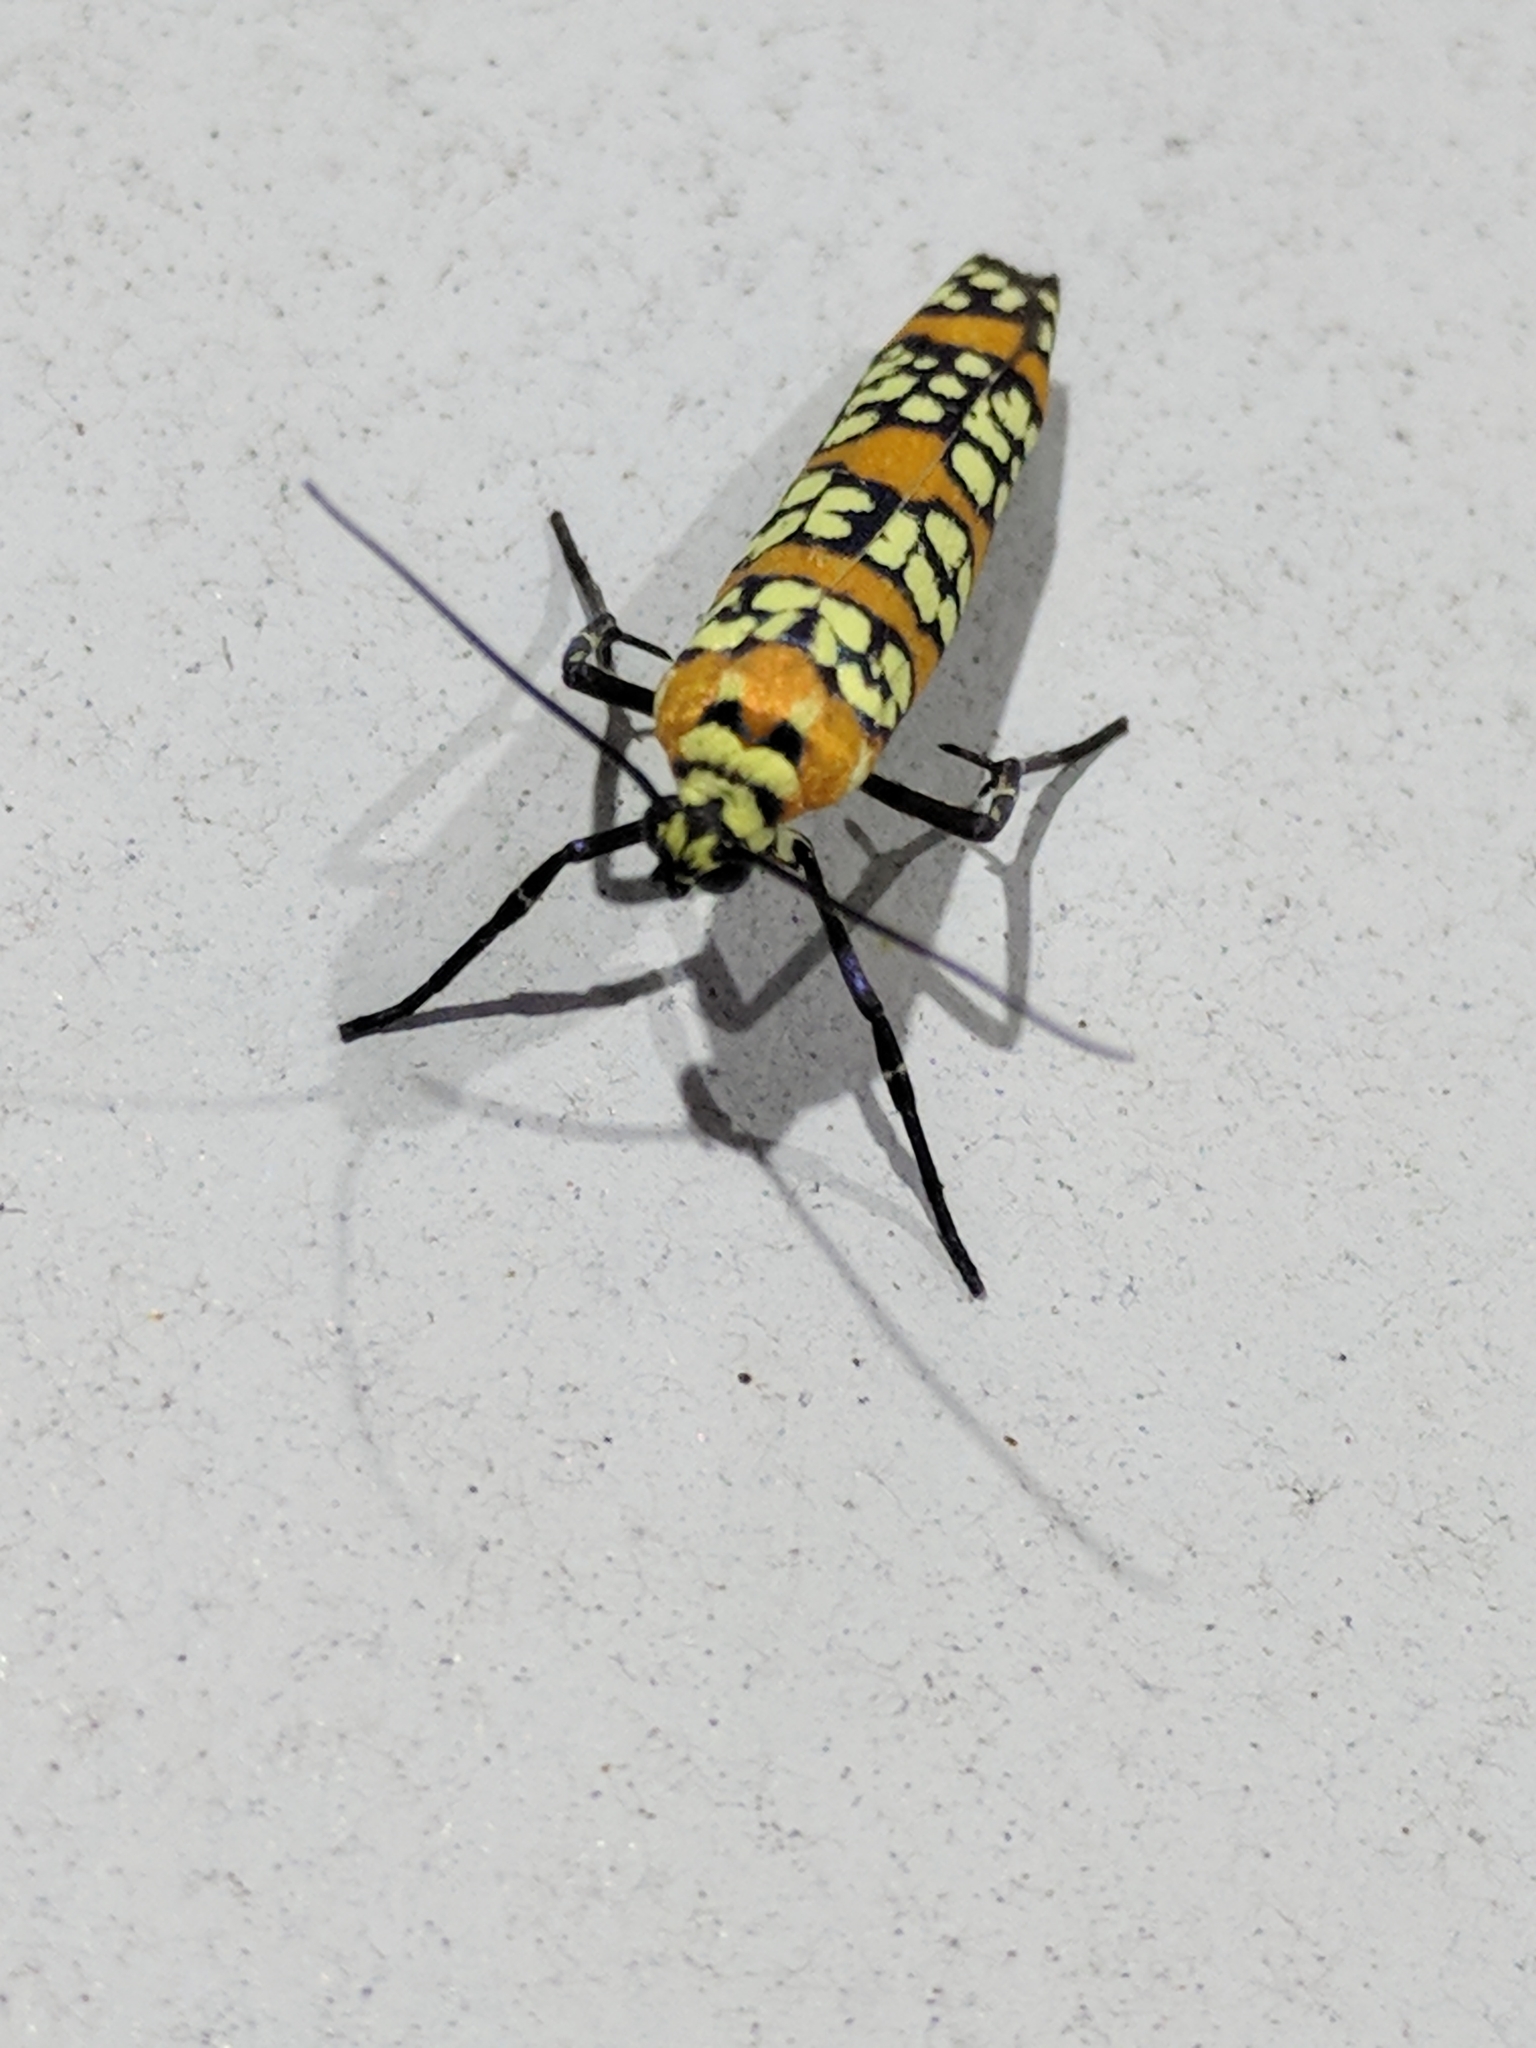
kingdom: Animalia
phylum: Arthropoda
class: Insecta
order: Lepidoptera
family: Attevidae
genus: Atteva
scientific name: Atteva punctella
